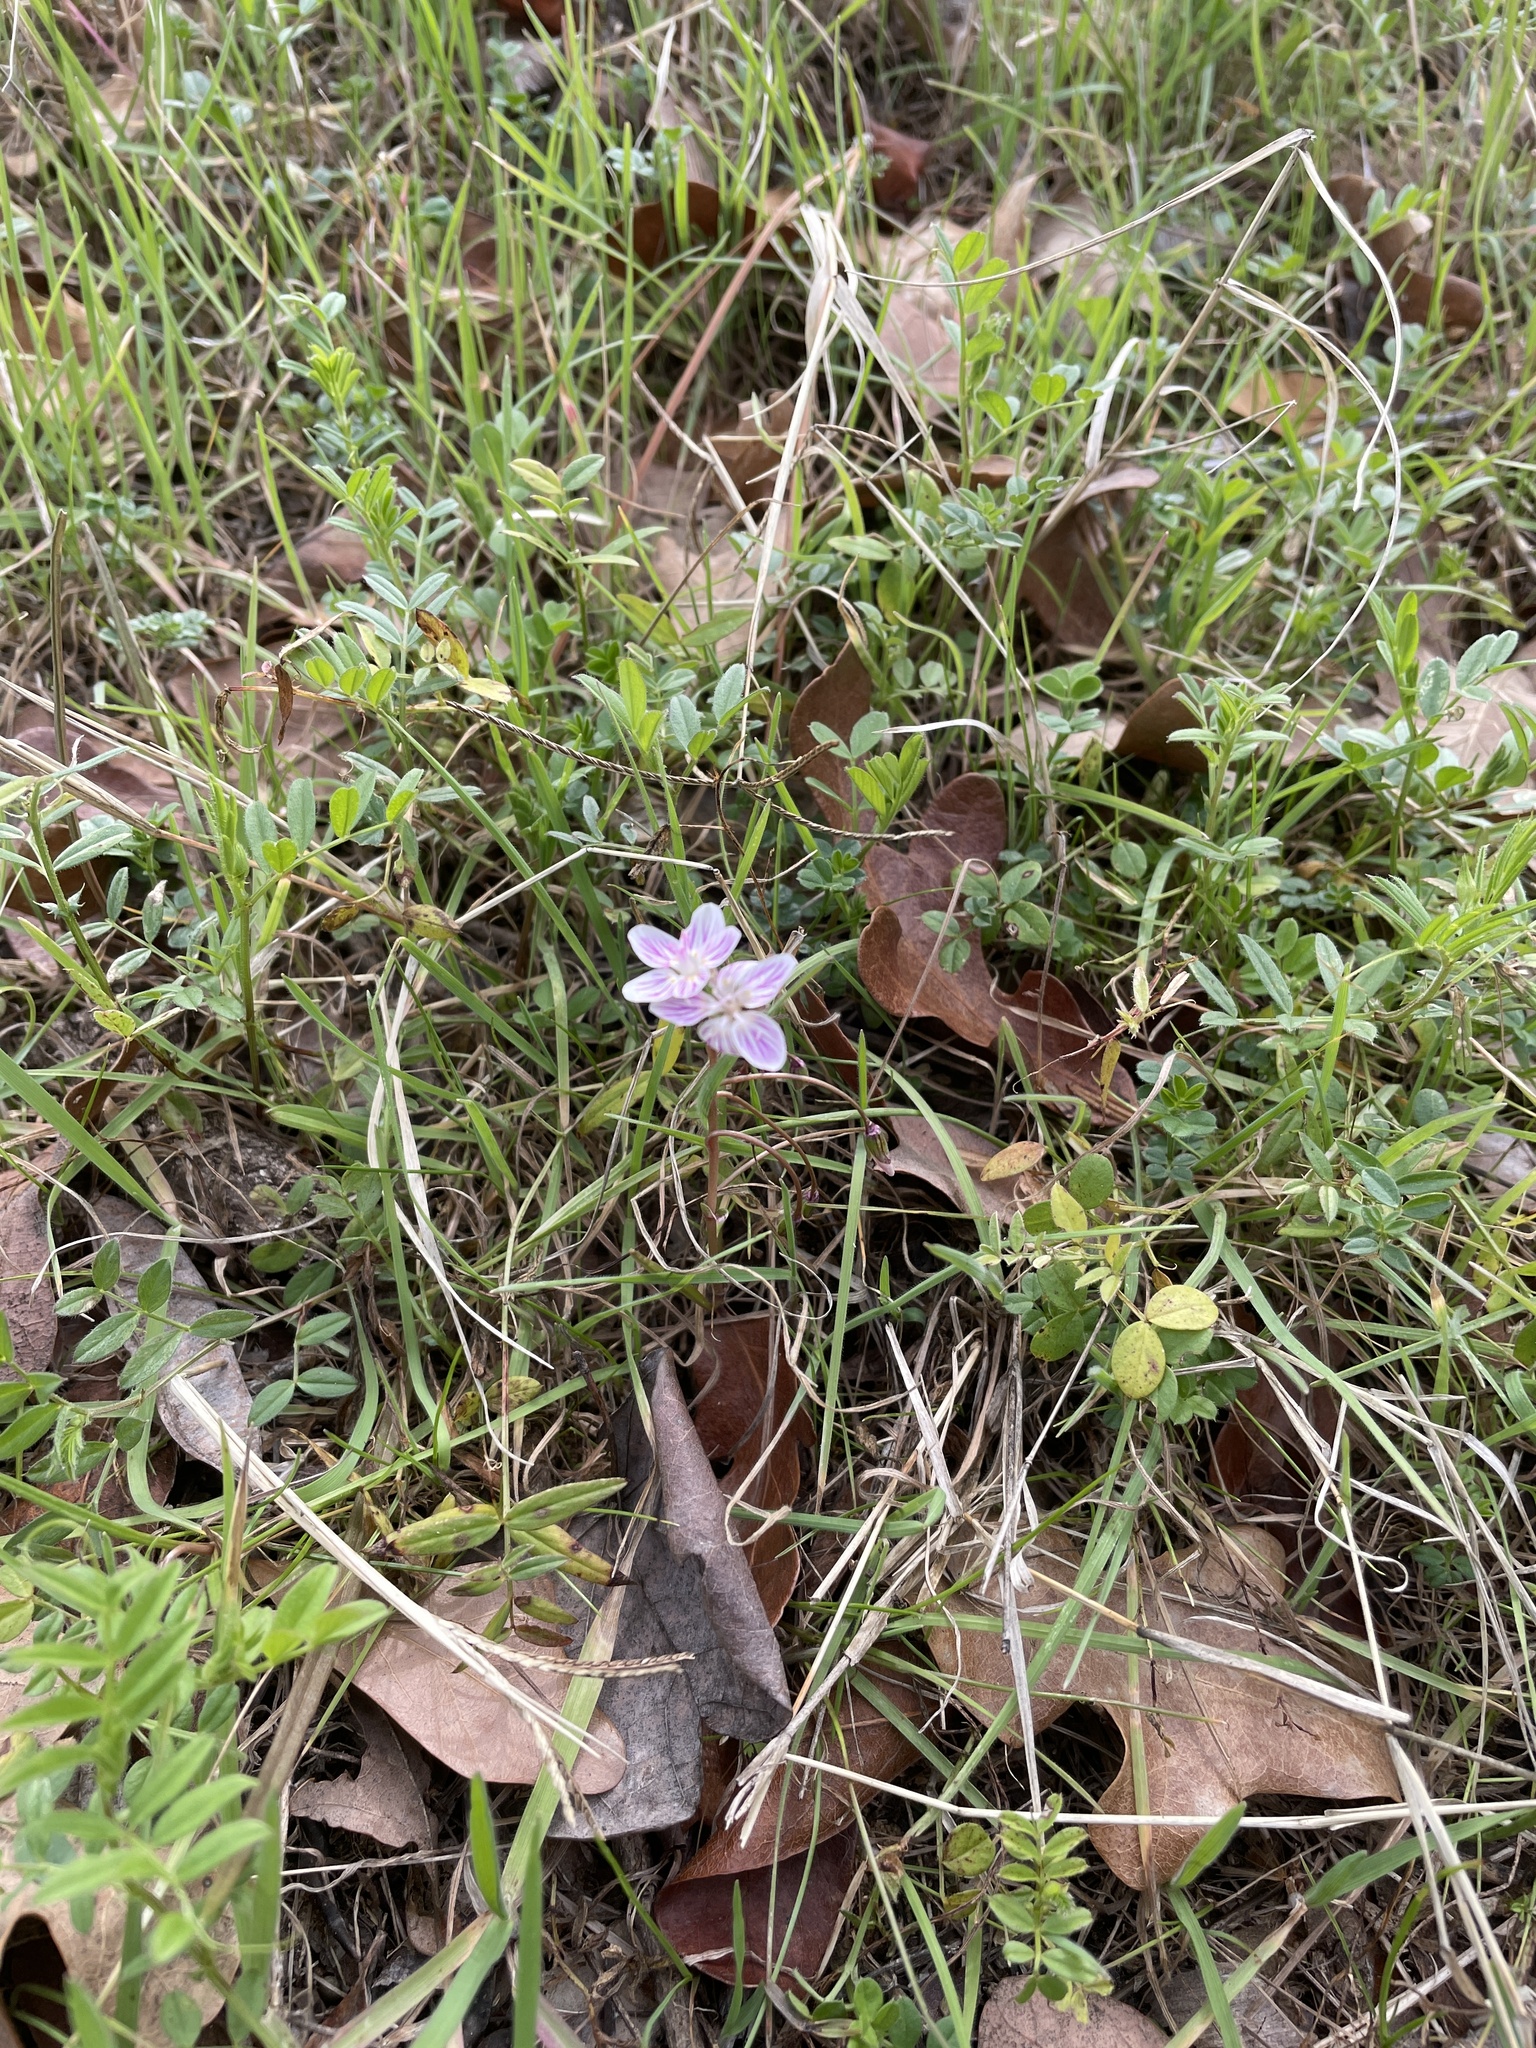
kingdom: Plantae
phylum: Tracheophyta
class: Magnoliopsida
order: Caryophyllales
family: Montiaceae
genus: Claytonia
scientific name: Claytonia virginica
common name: Virginia springbeauty
